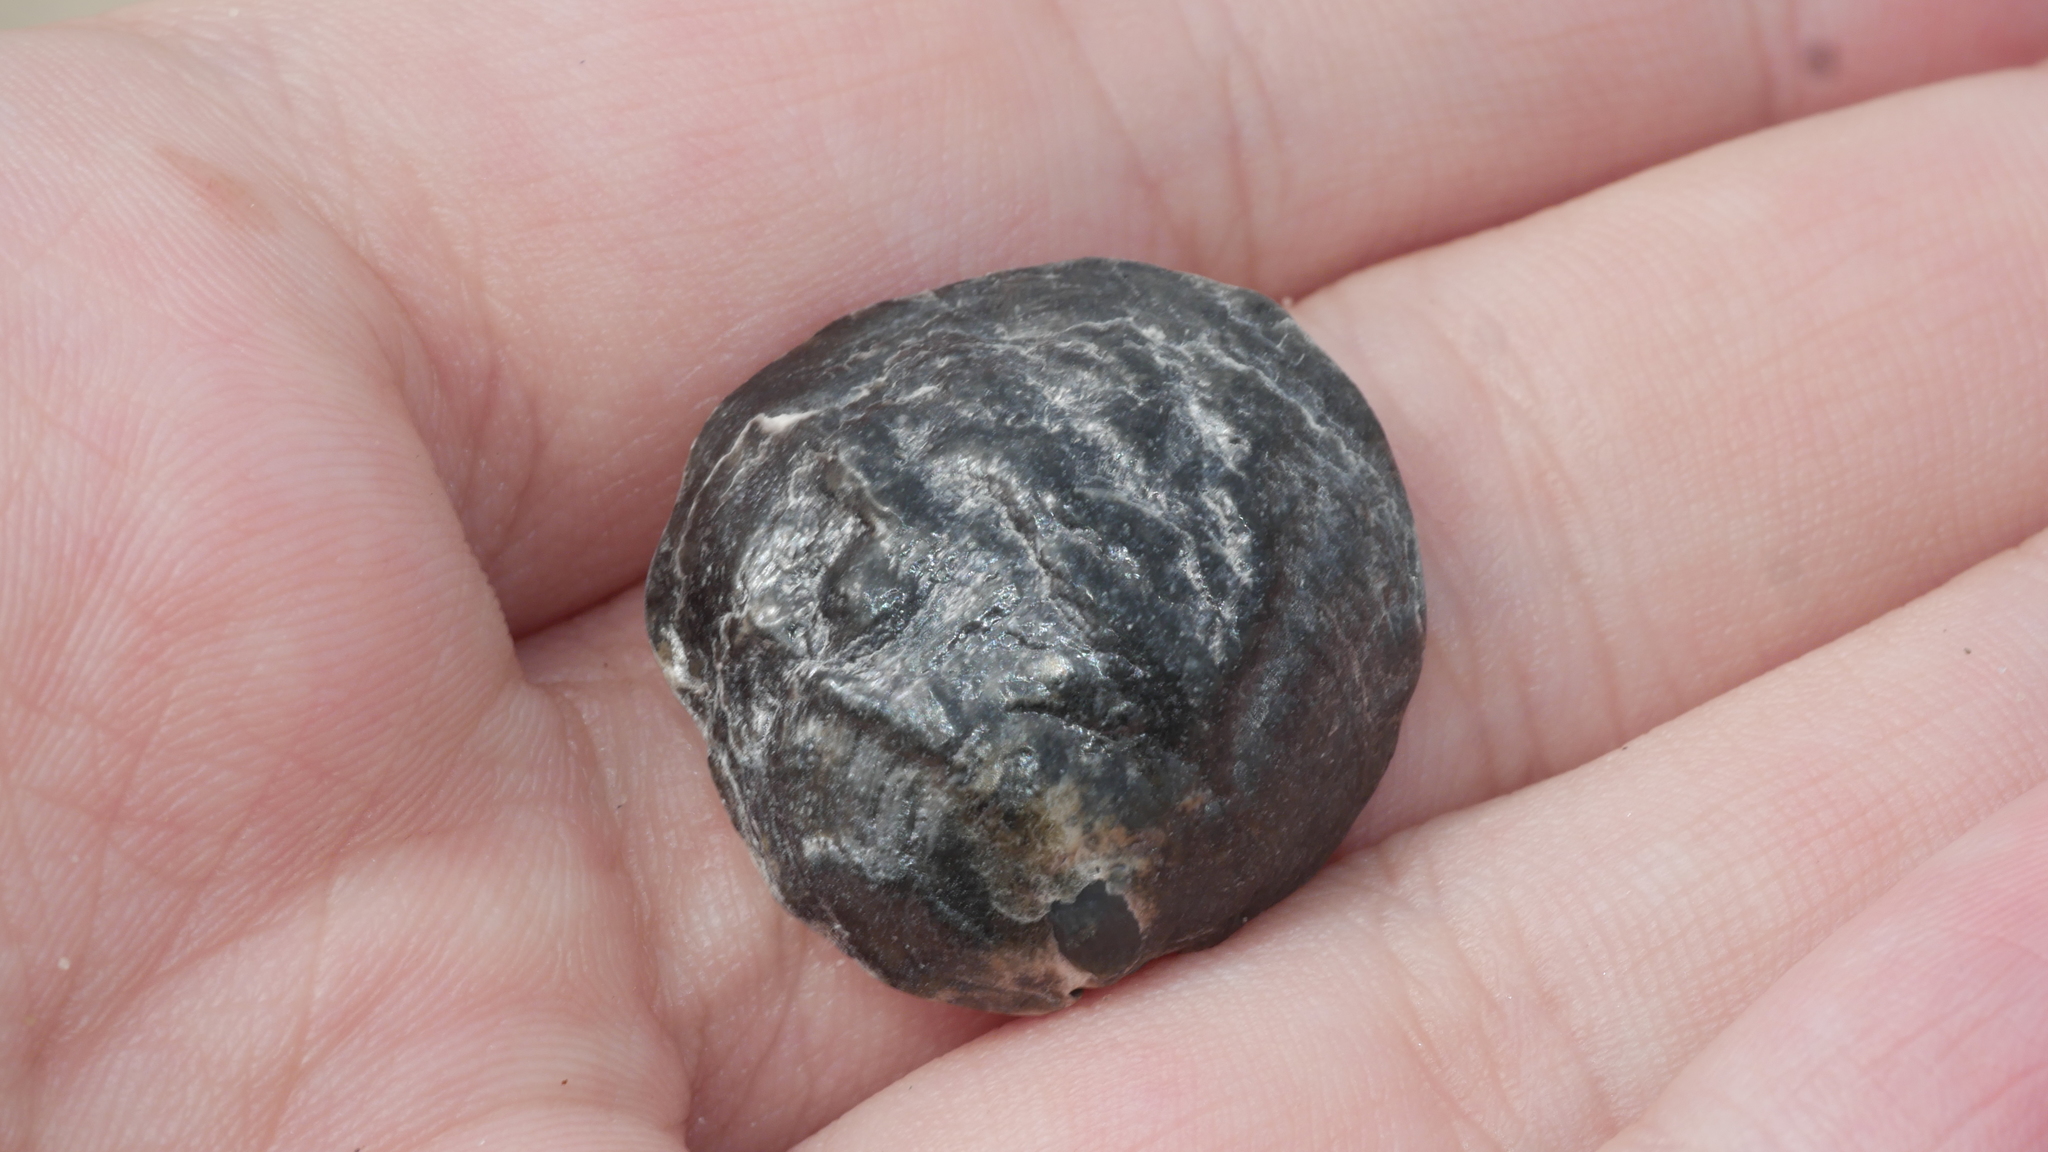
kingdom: Animalia
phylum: Mollusca
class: Bivalvia
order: Pectinida
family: Anomiidae
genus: Anomia
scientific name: Anomia simplex
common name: Common jingle shell
